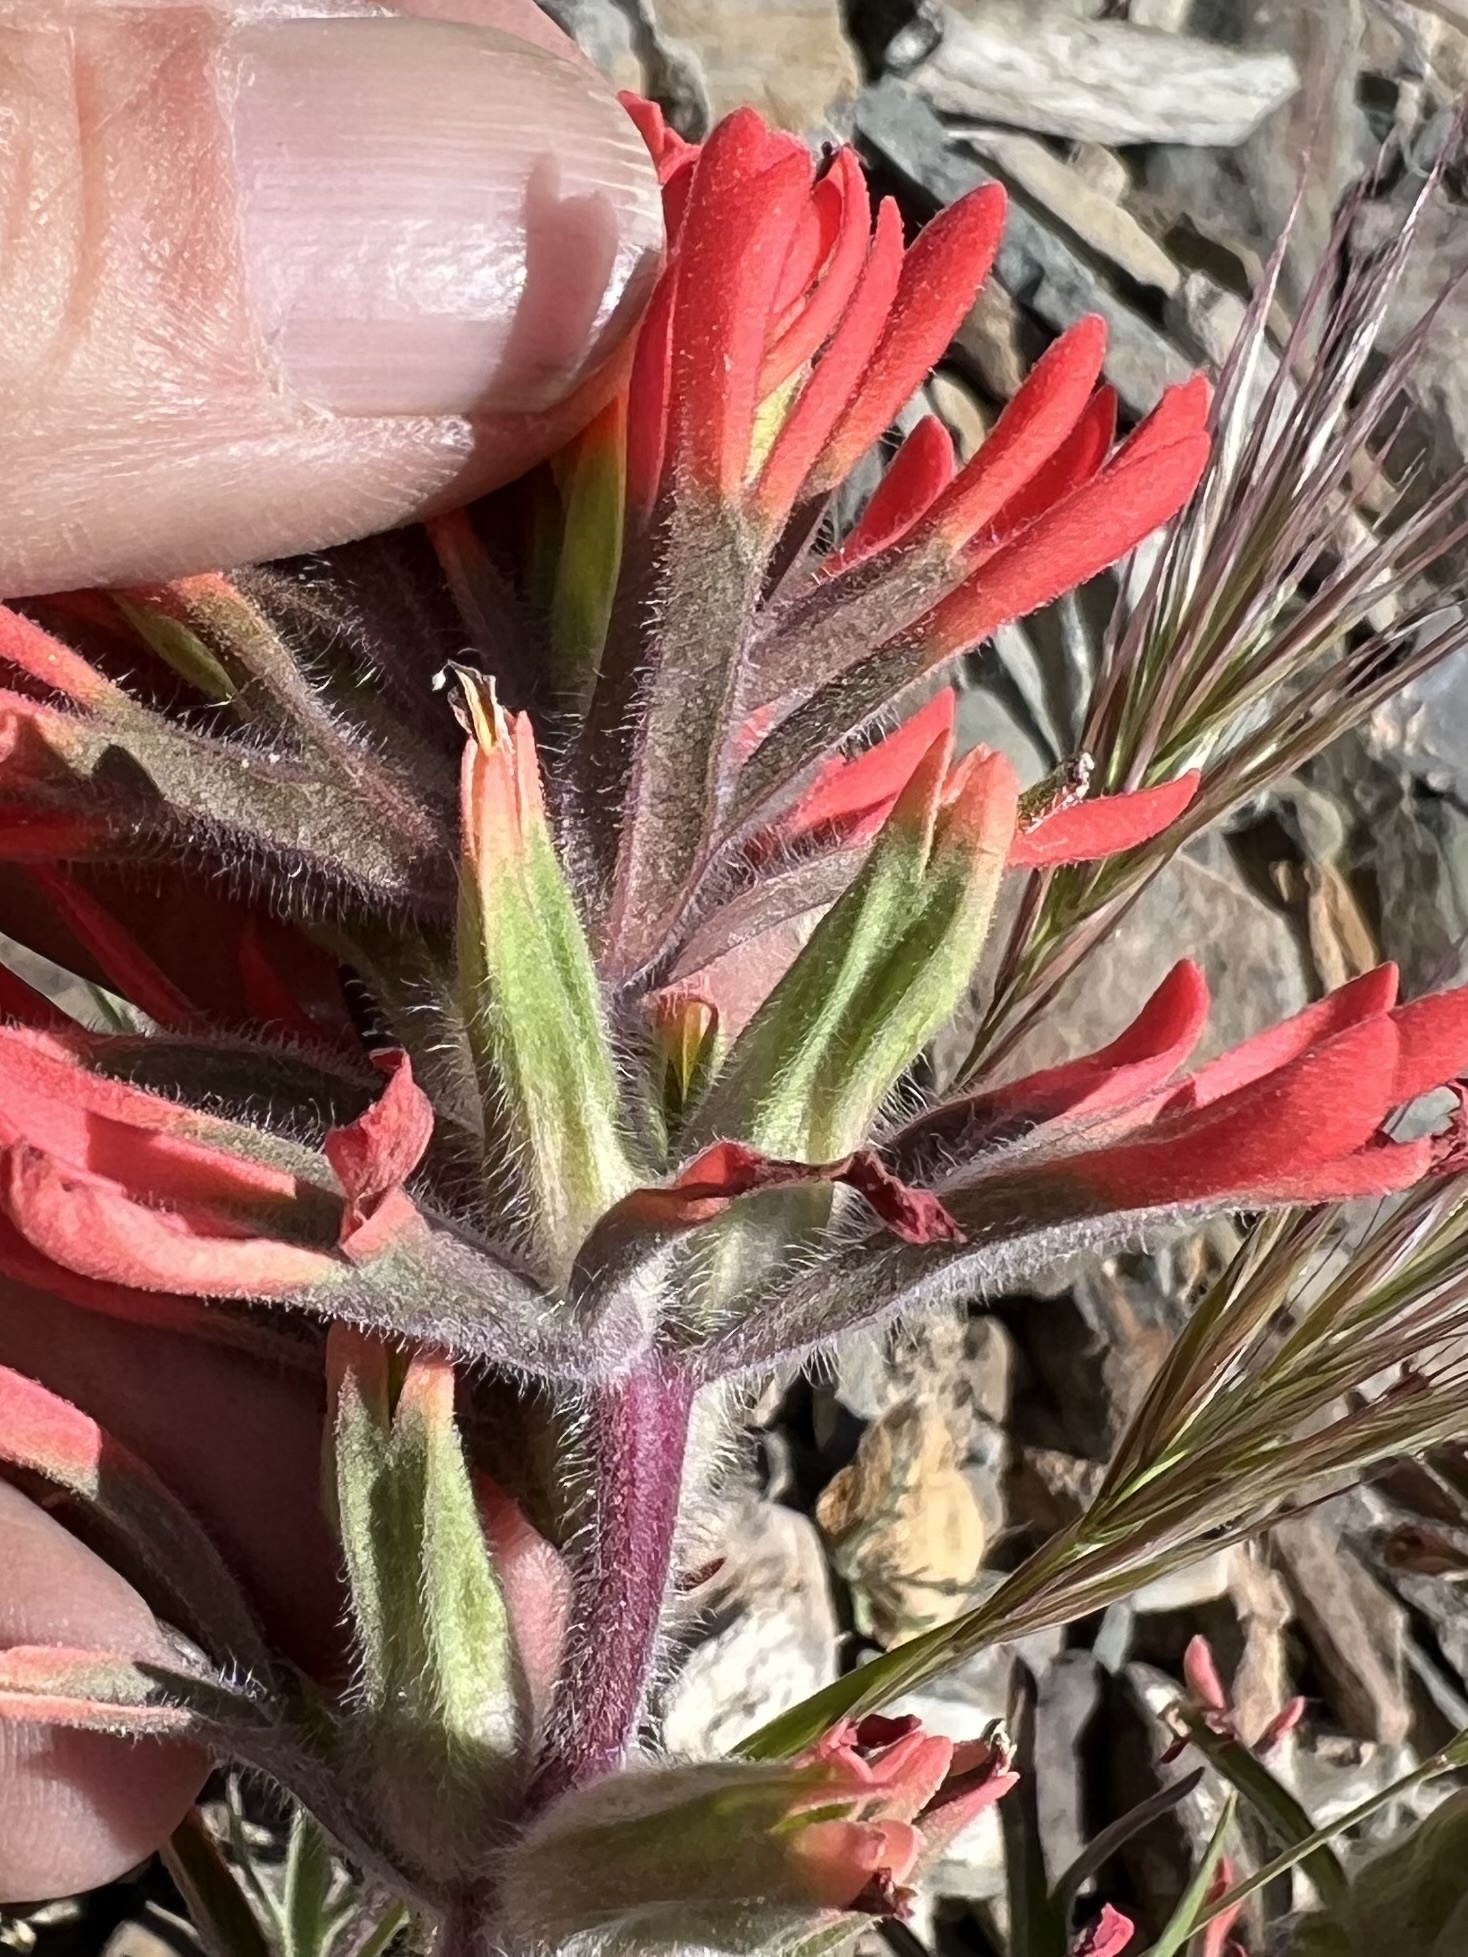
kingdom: Plantae
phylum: Tracheophyta
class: Magnoliopsida
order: Lamiales
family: Orobanchaceae
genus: Castilleja
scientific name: Castilleja chromosa
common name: Desert paintbrush
